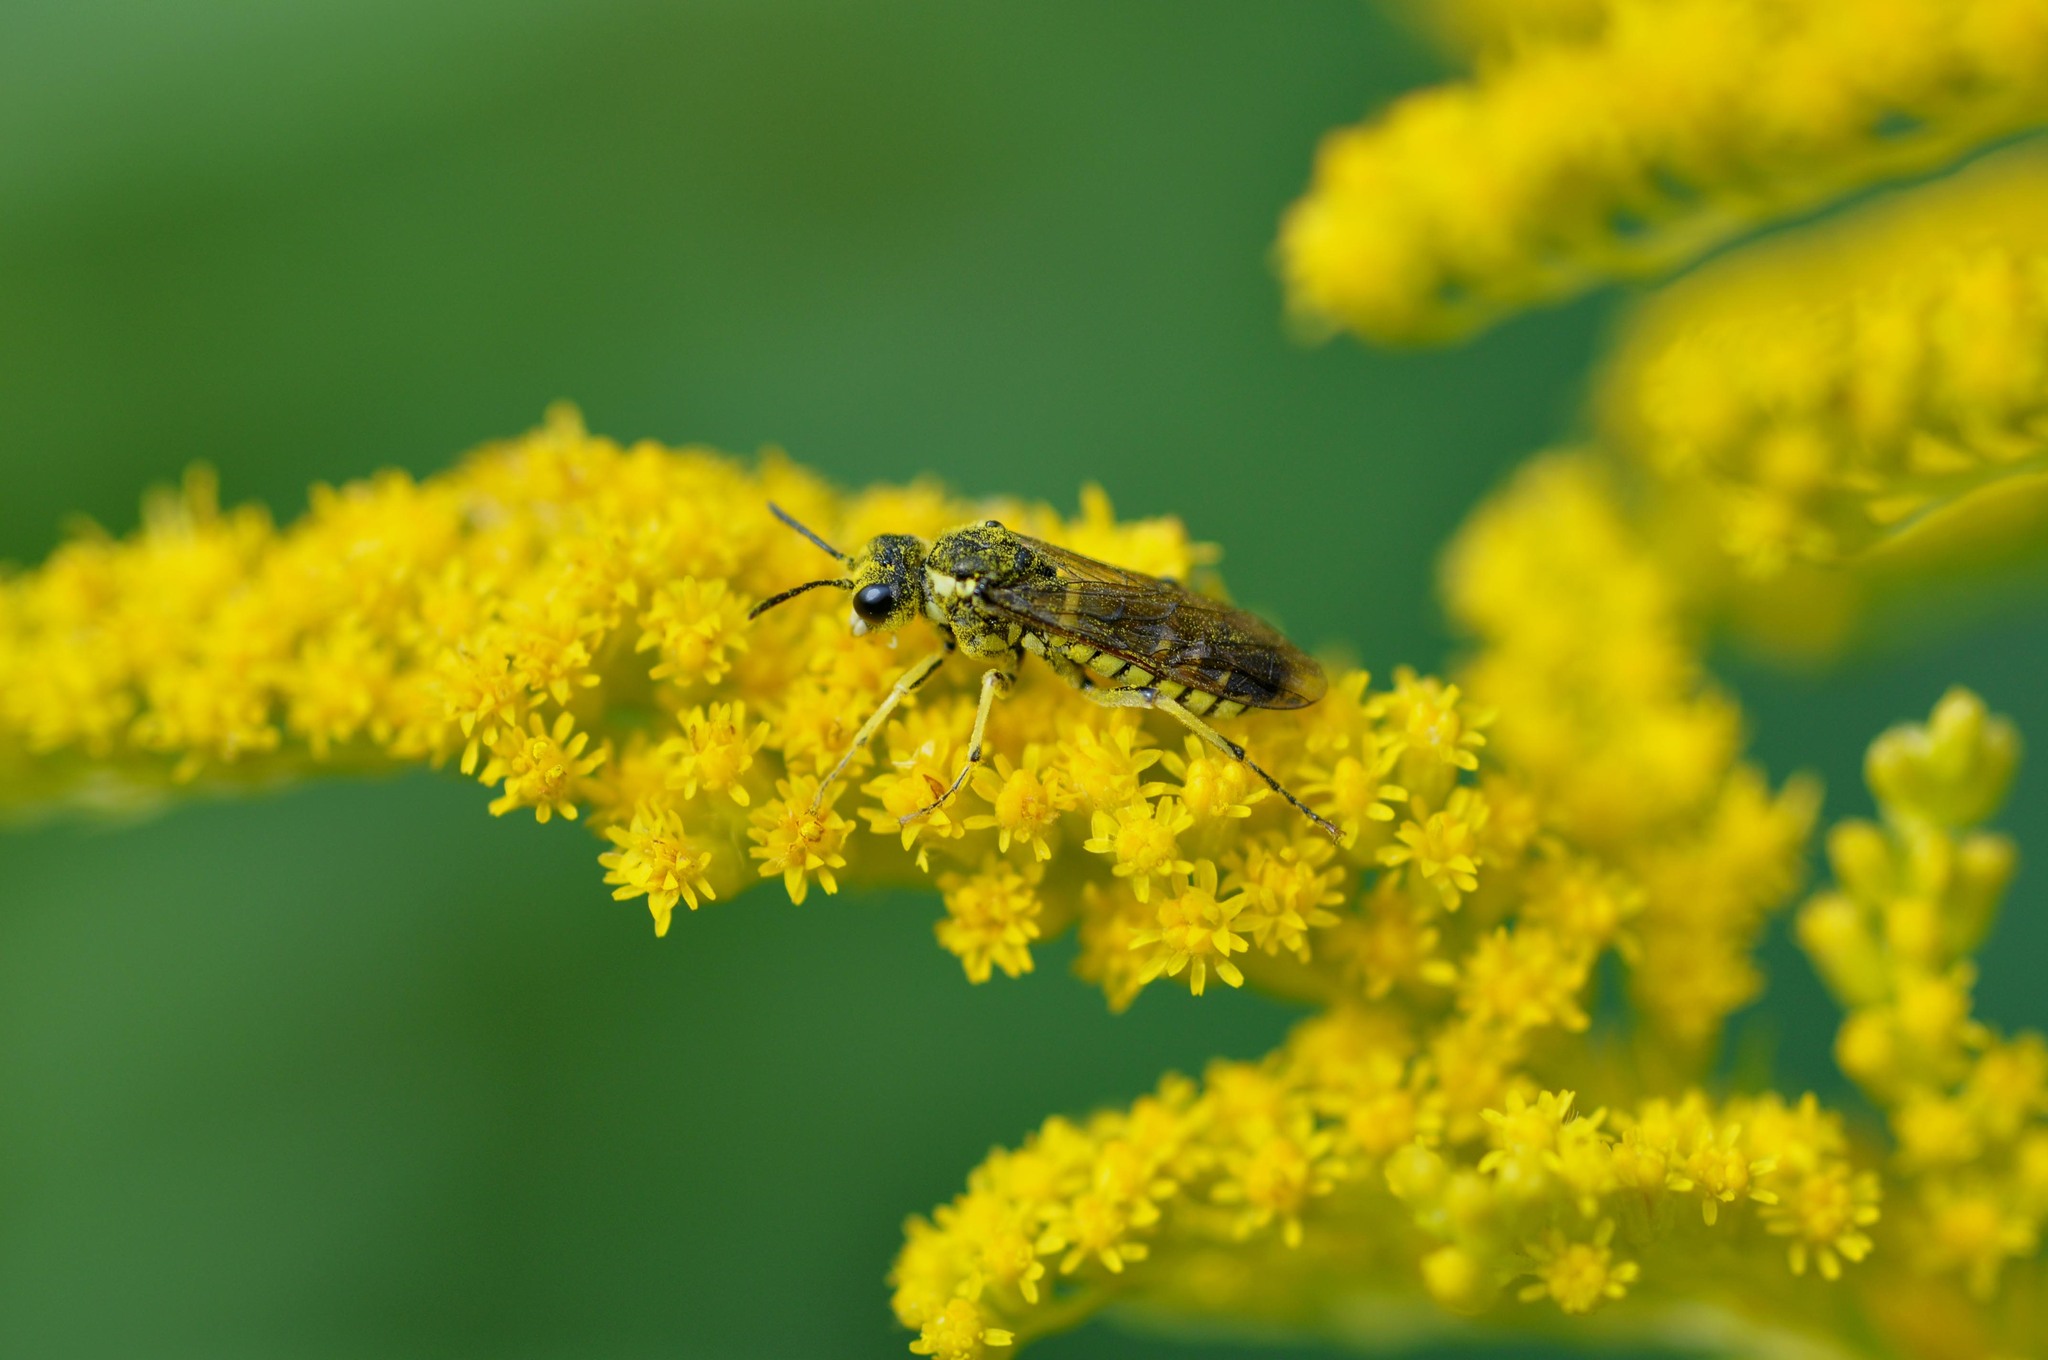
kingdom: Animalia
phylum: Arthropoda
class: Insecta
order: Hymenoptera
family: Tenthredinidae
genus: Tenthredo
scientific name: Tenthredo notha
